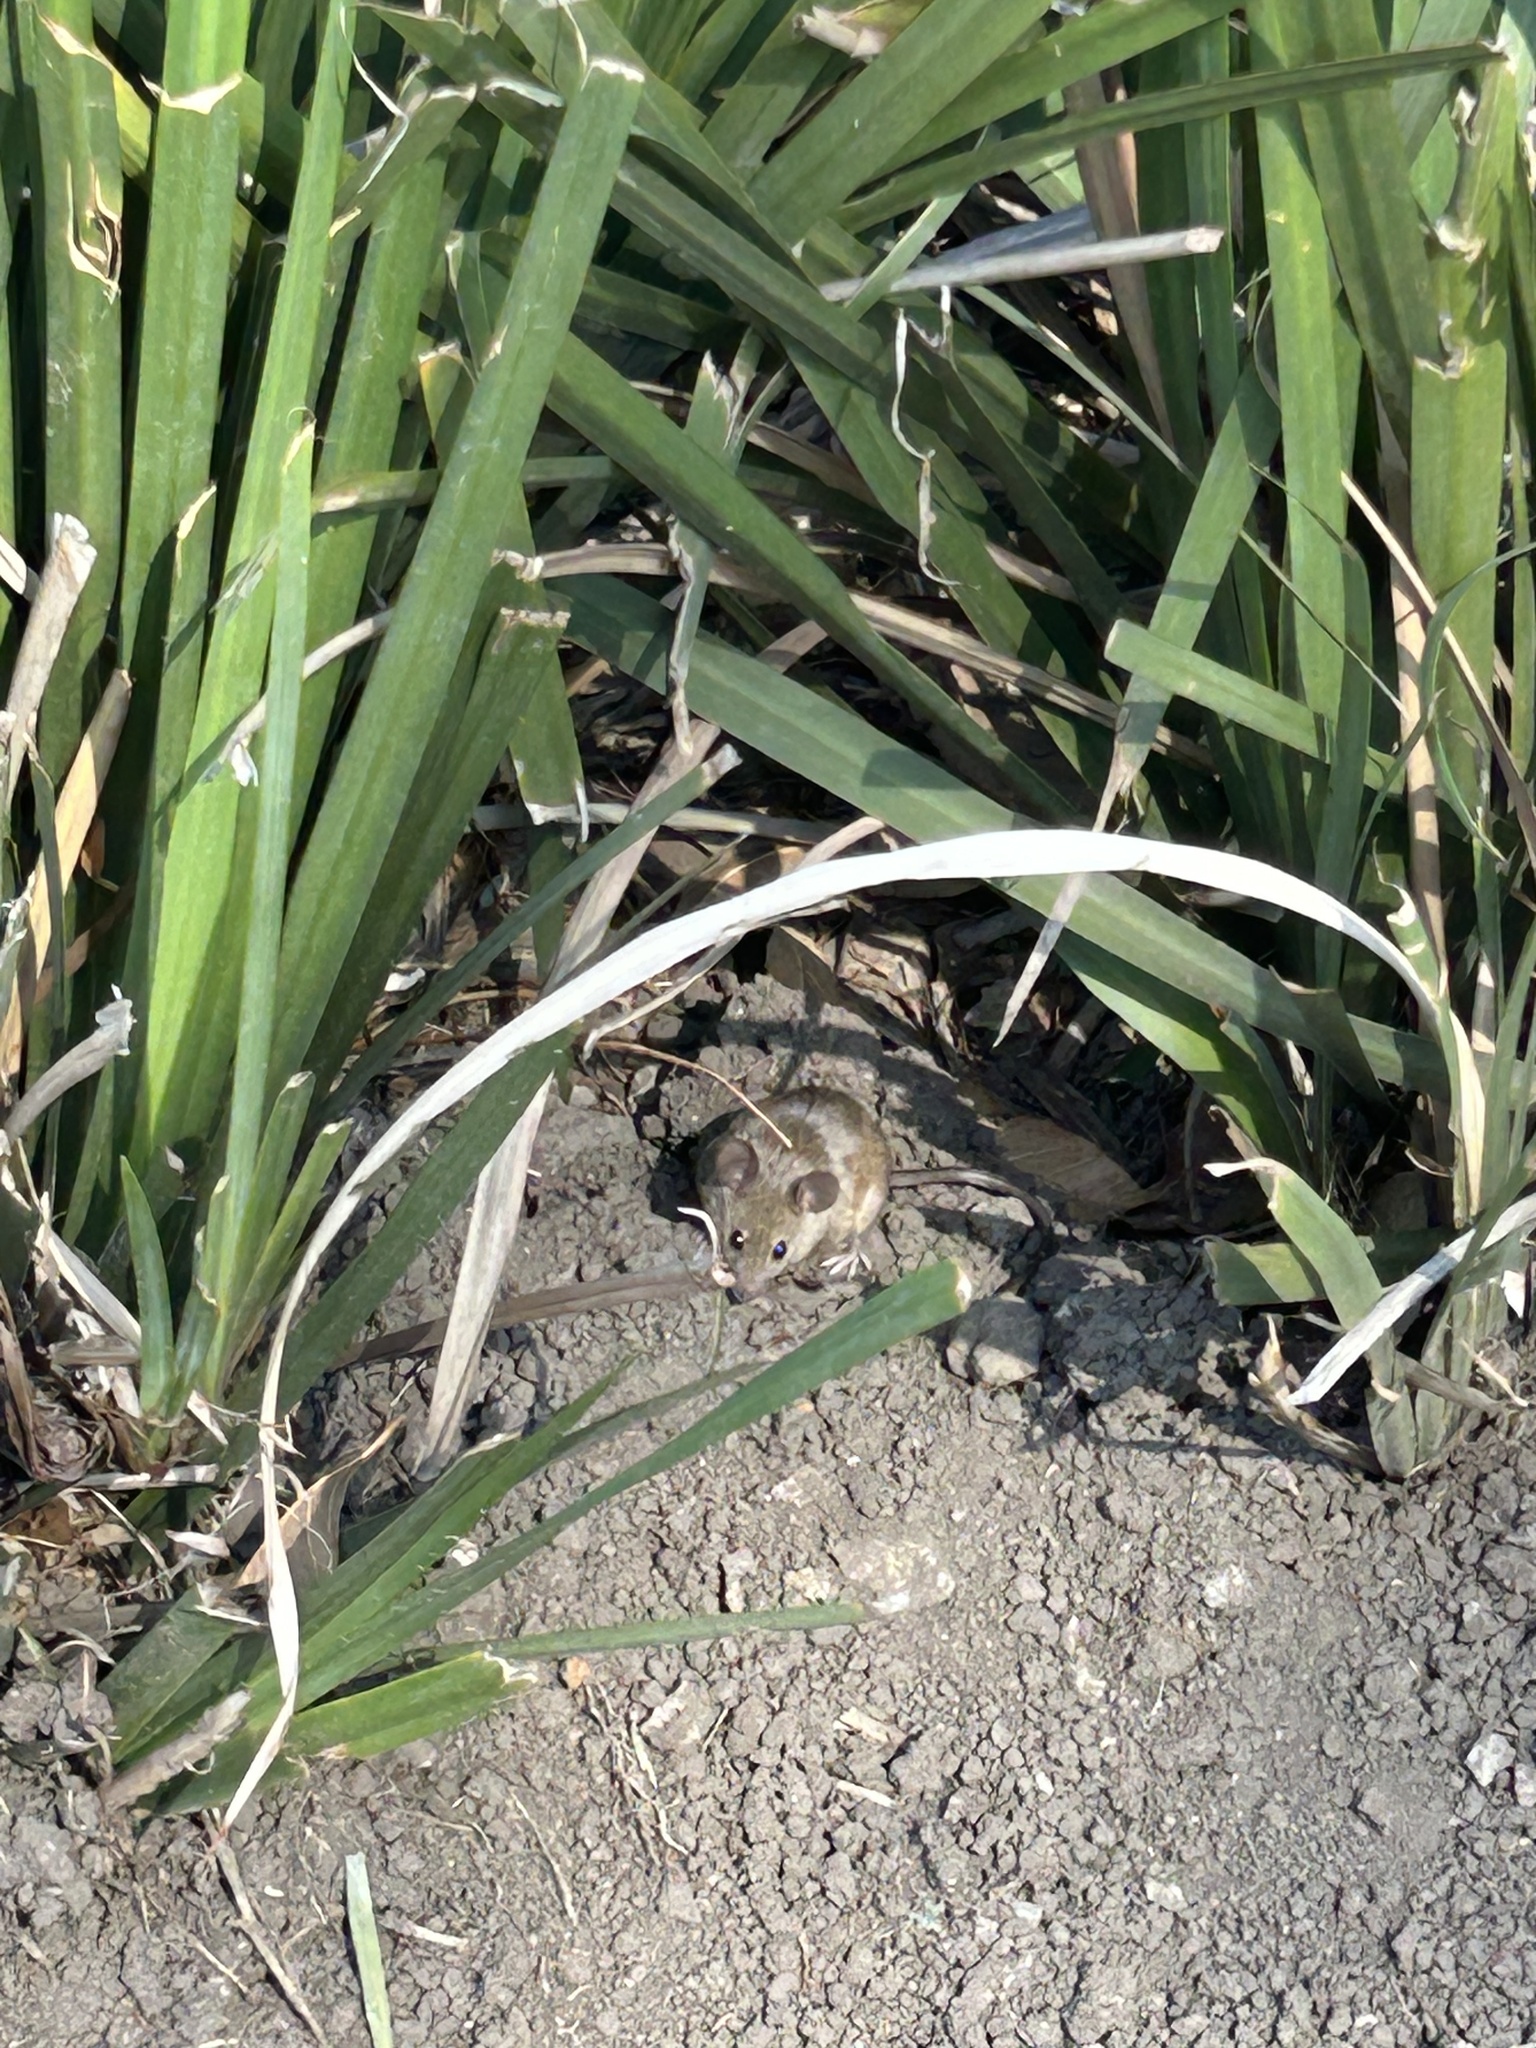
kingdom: Animalia
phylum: Chordata
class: Mammalia
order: Rodentia
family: Muridae
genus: Mus
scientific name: Mus musculus
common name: House mouse
